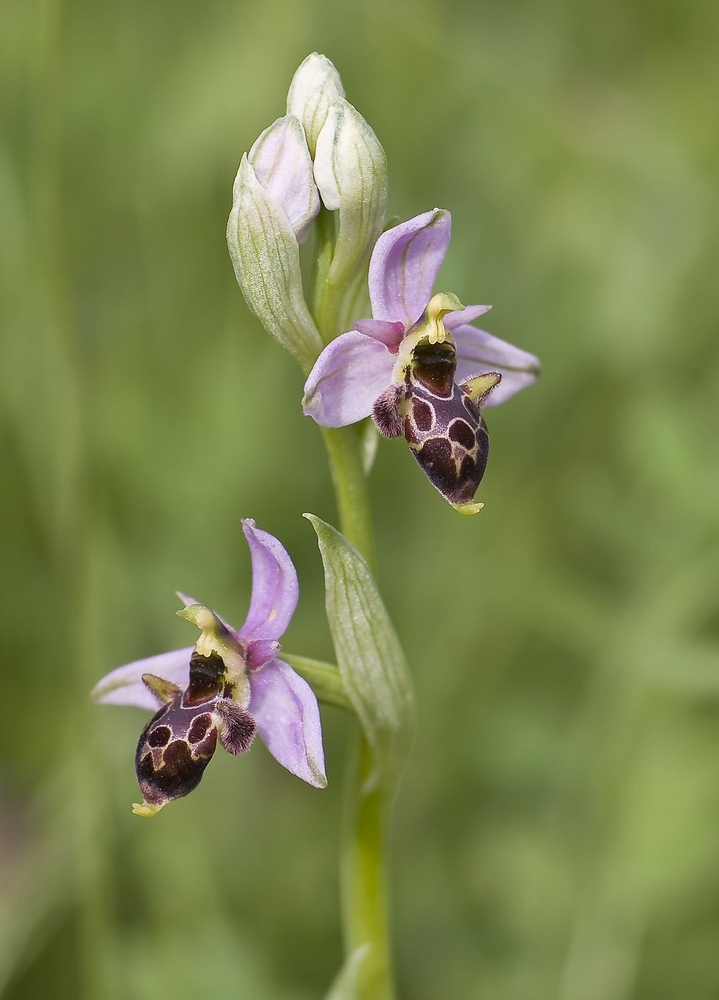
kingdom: Plantae
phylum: Tracheophyta
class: Liliopsida
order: Asparagales
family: Orchidaceae
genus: Ophrys
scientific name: Ophrys scolopax
